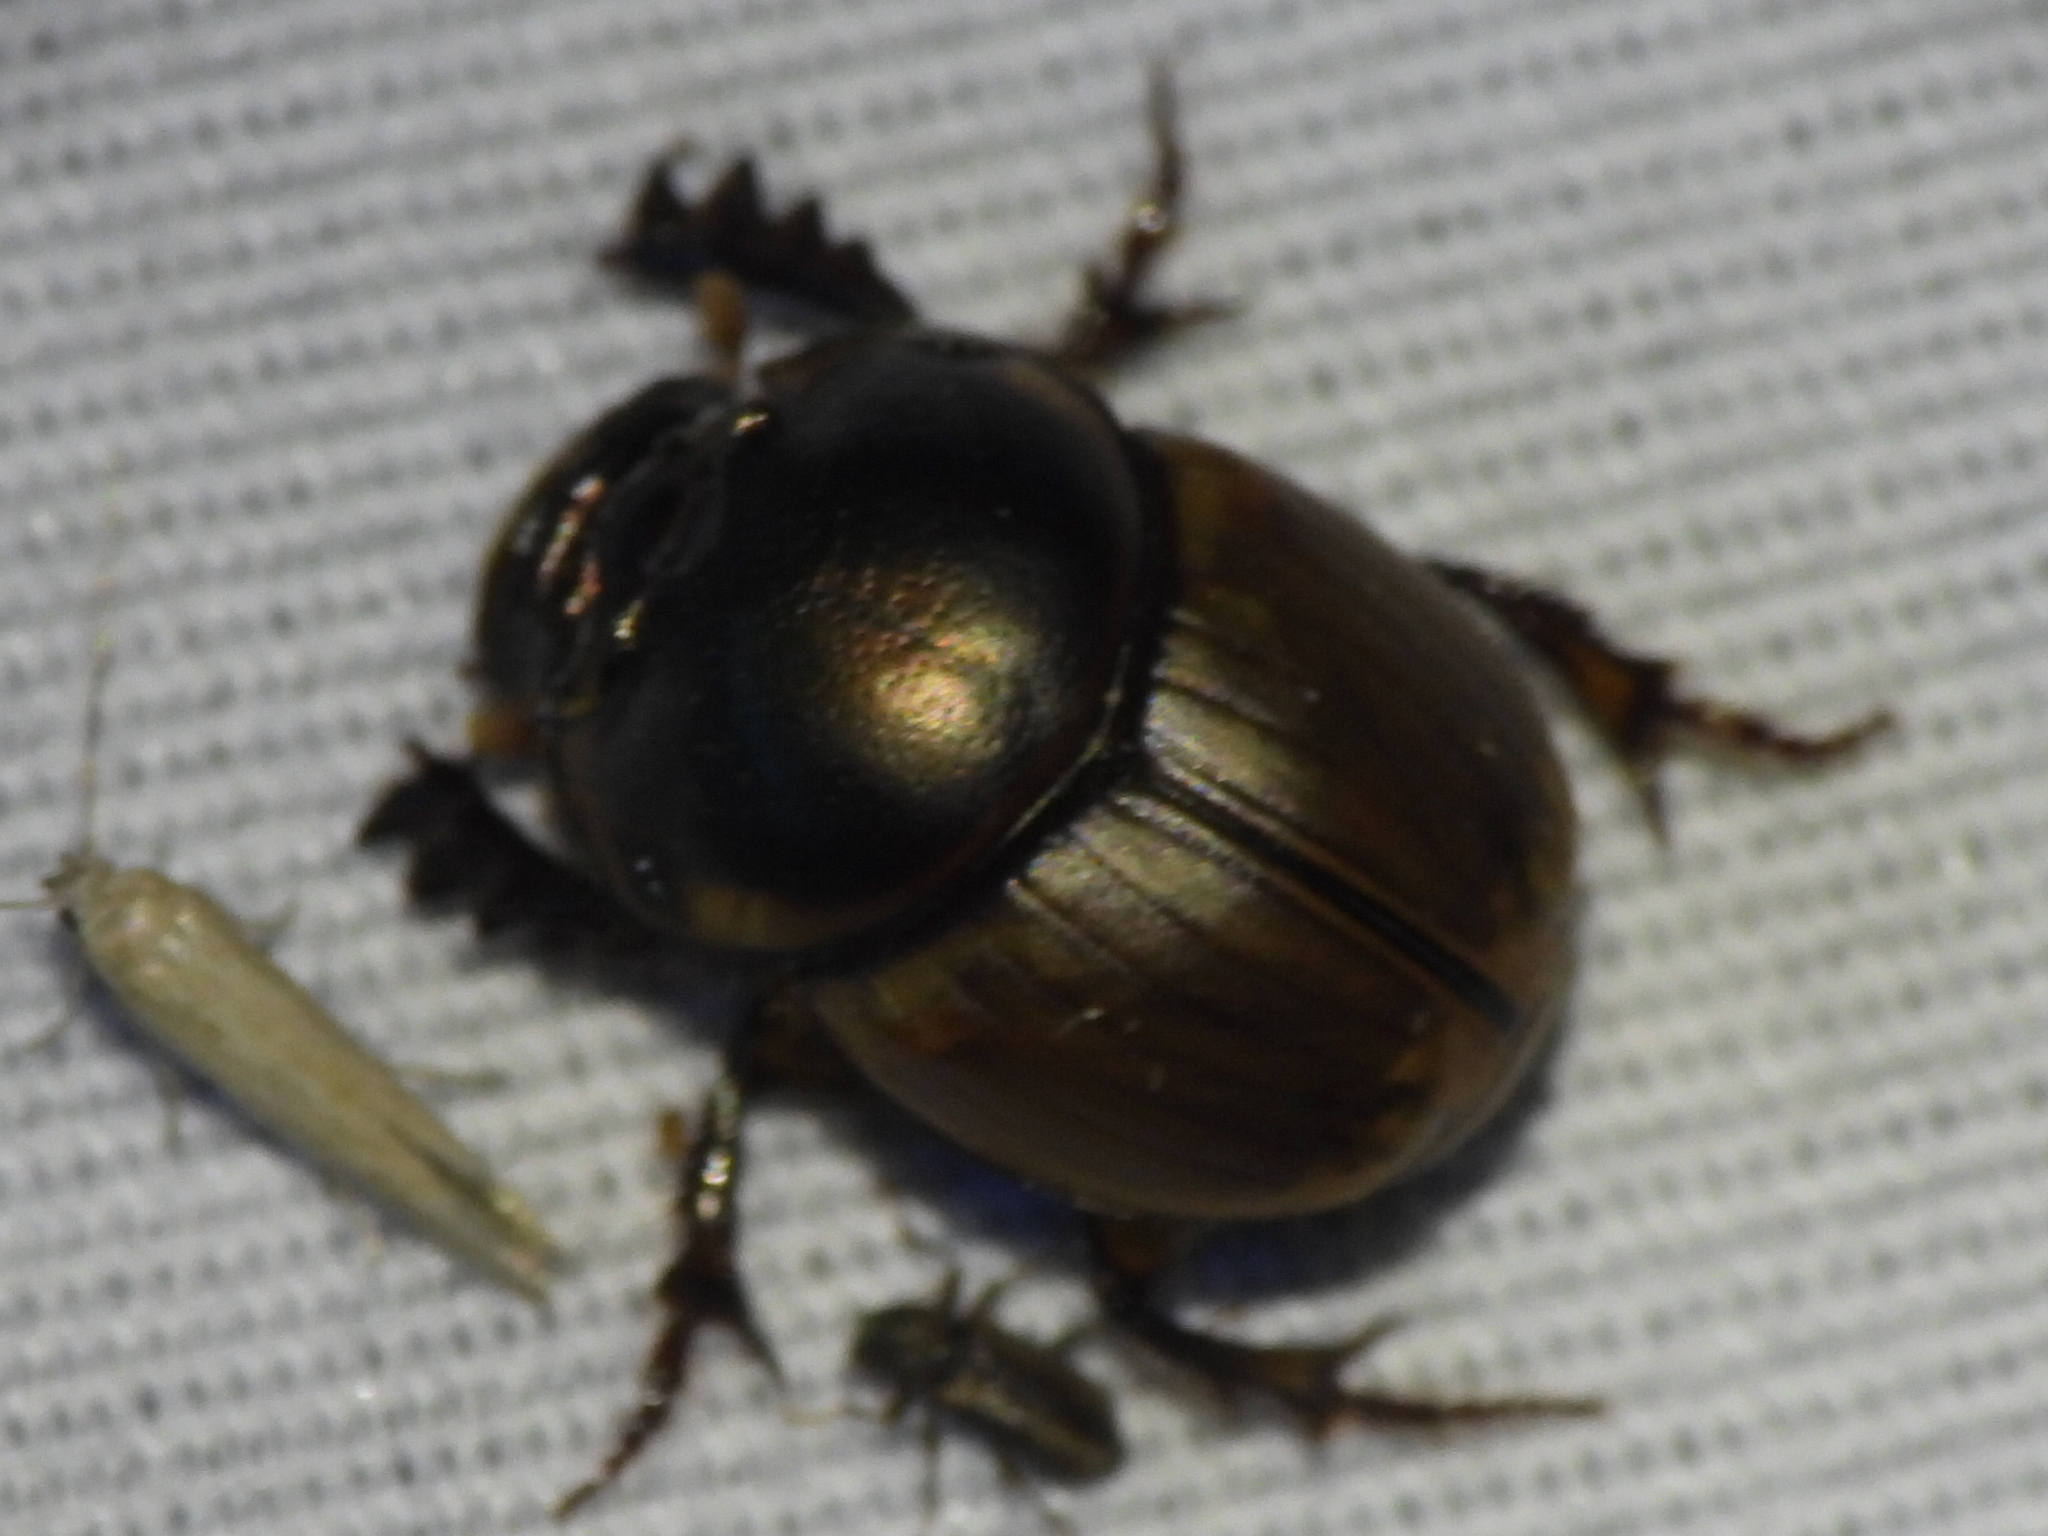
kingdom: Animalia
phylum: Arthropoda
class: Insecta
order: Coleoptera
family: Scarabaeidae
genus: Digitonthophagus
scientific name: Digitonthophagus gazella
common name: Brown dung beetle
